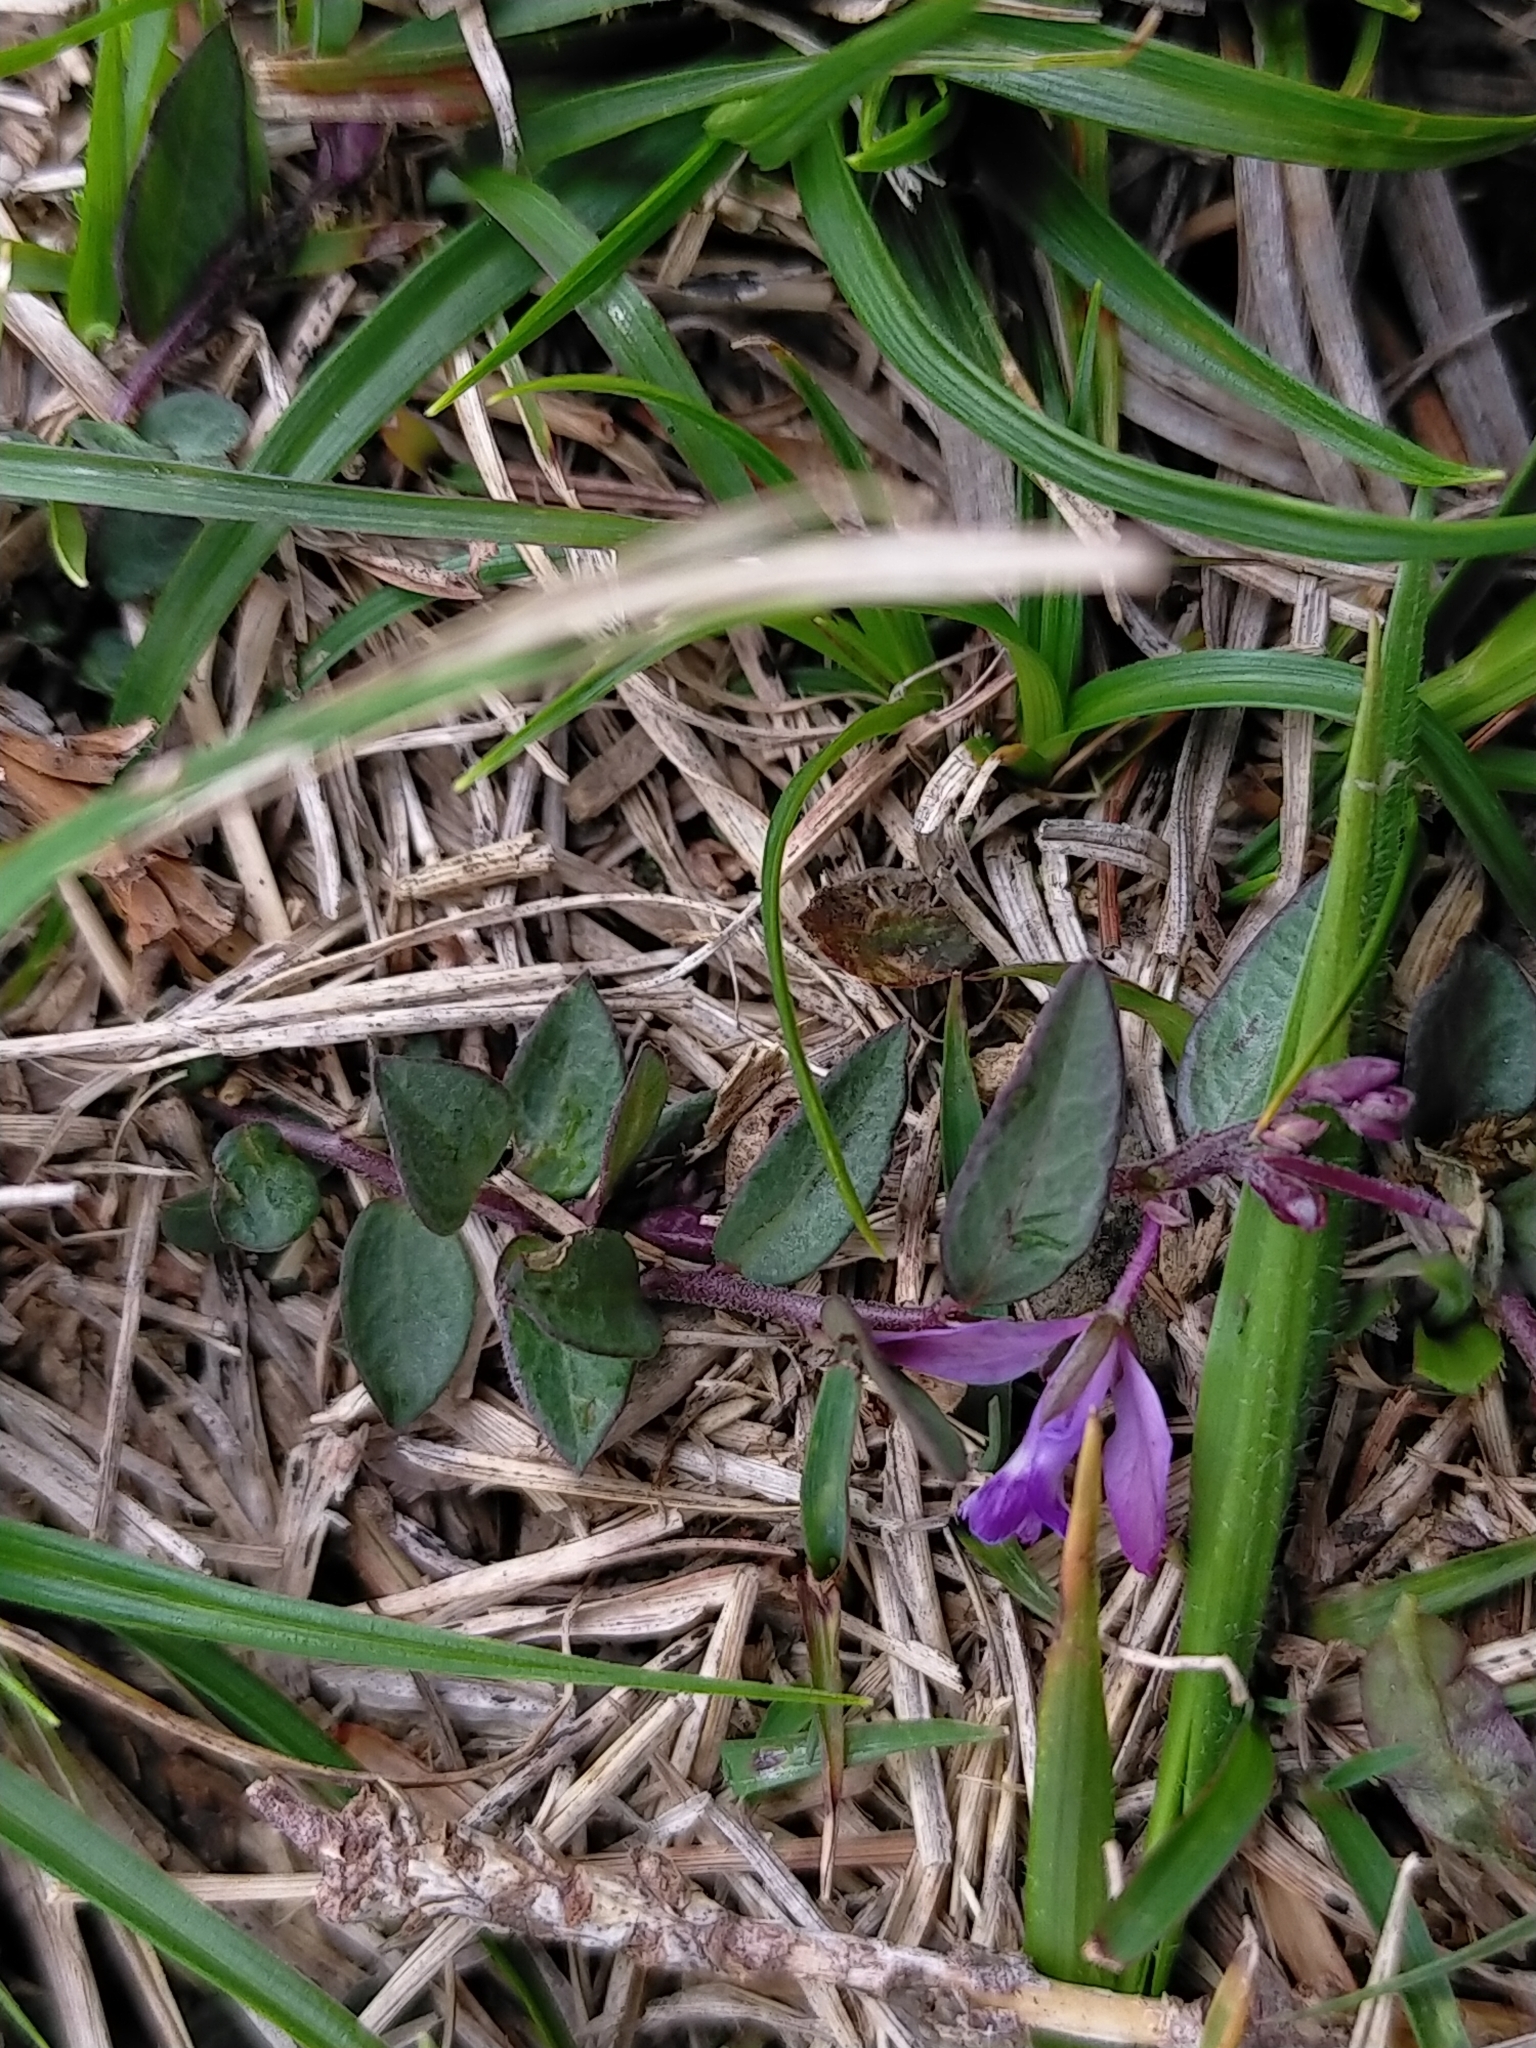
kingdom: Plantae
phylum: Tracheophyta
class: Magnoliopsida
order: Fabales
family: Polygalaceae
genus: Polygala
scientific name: Polygala japonica
